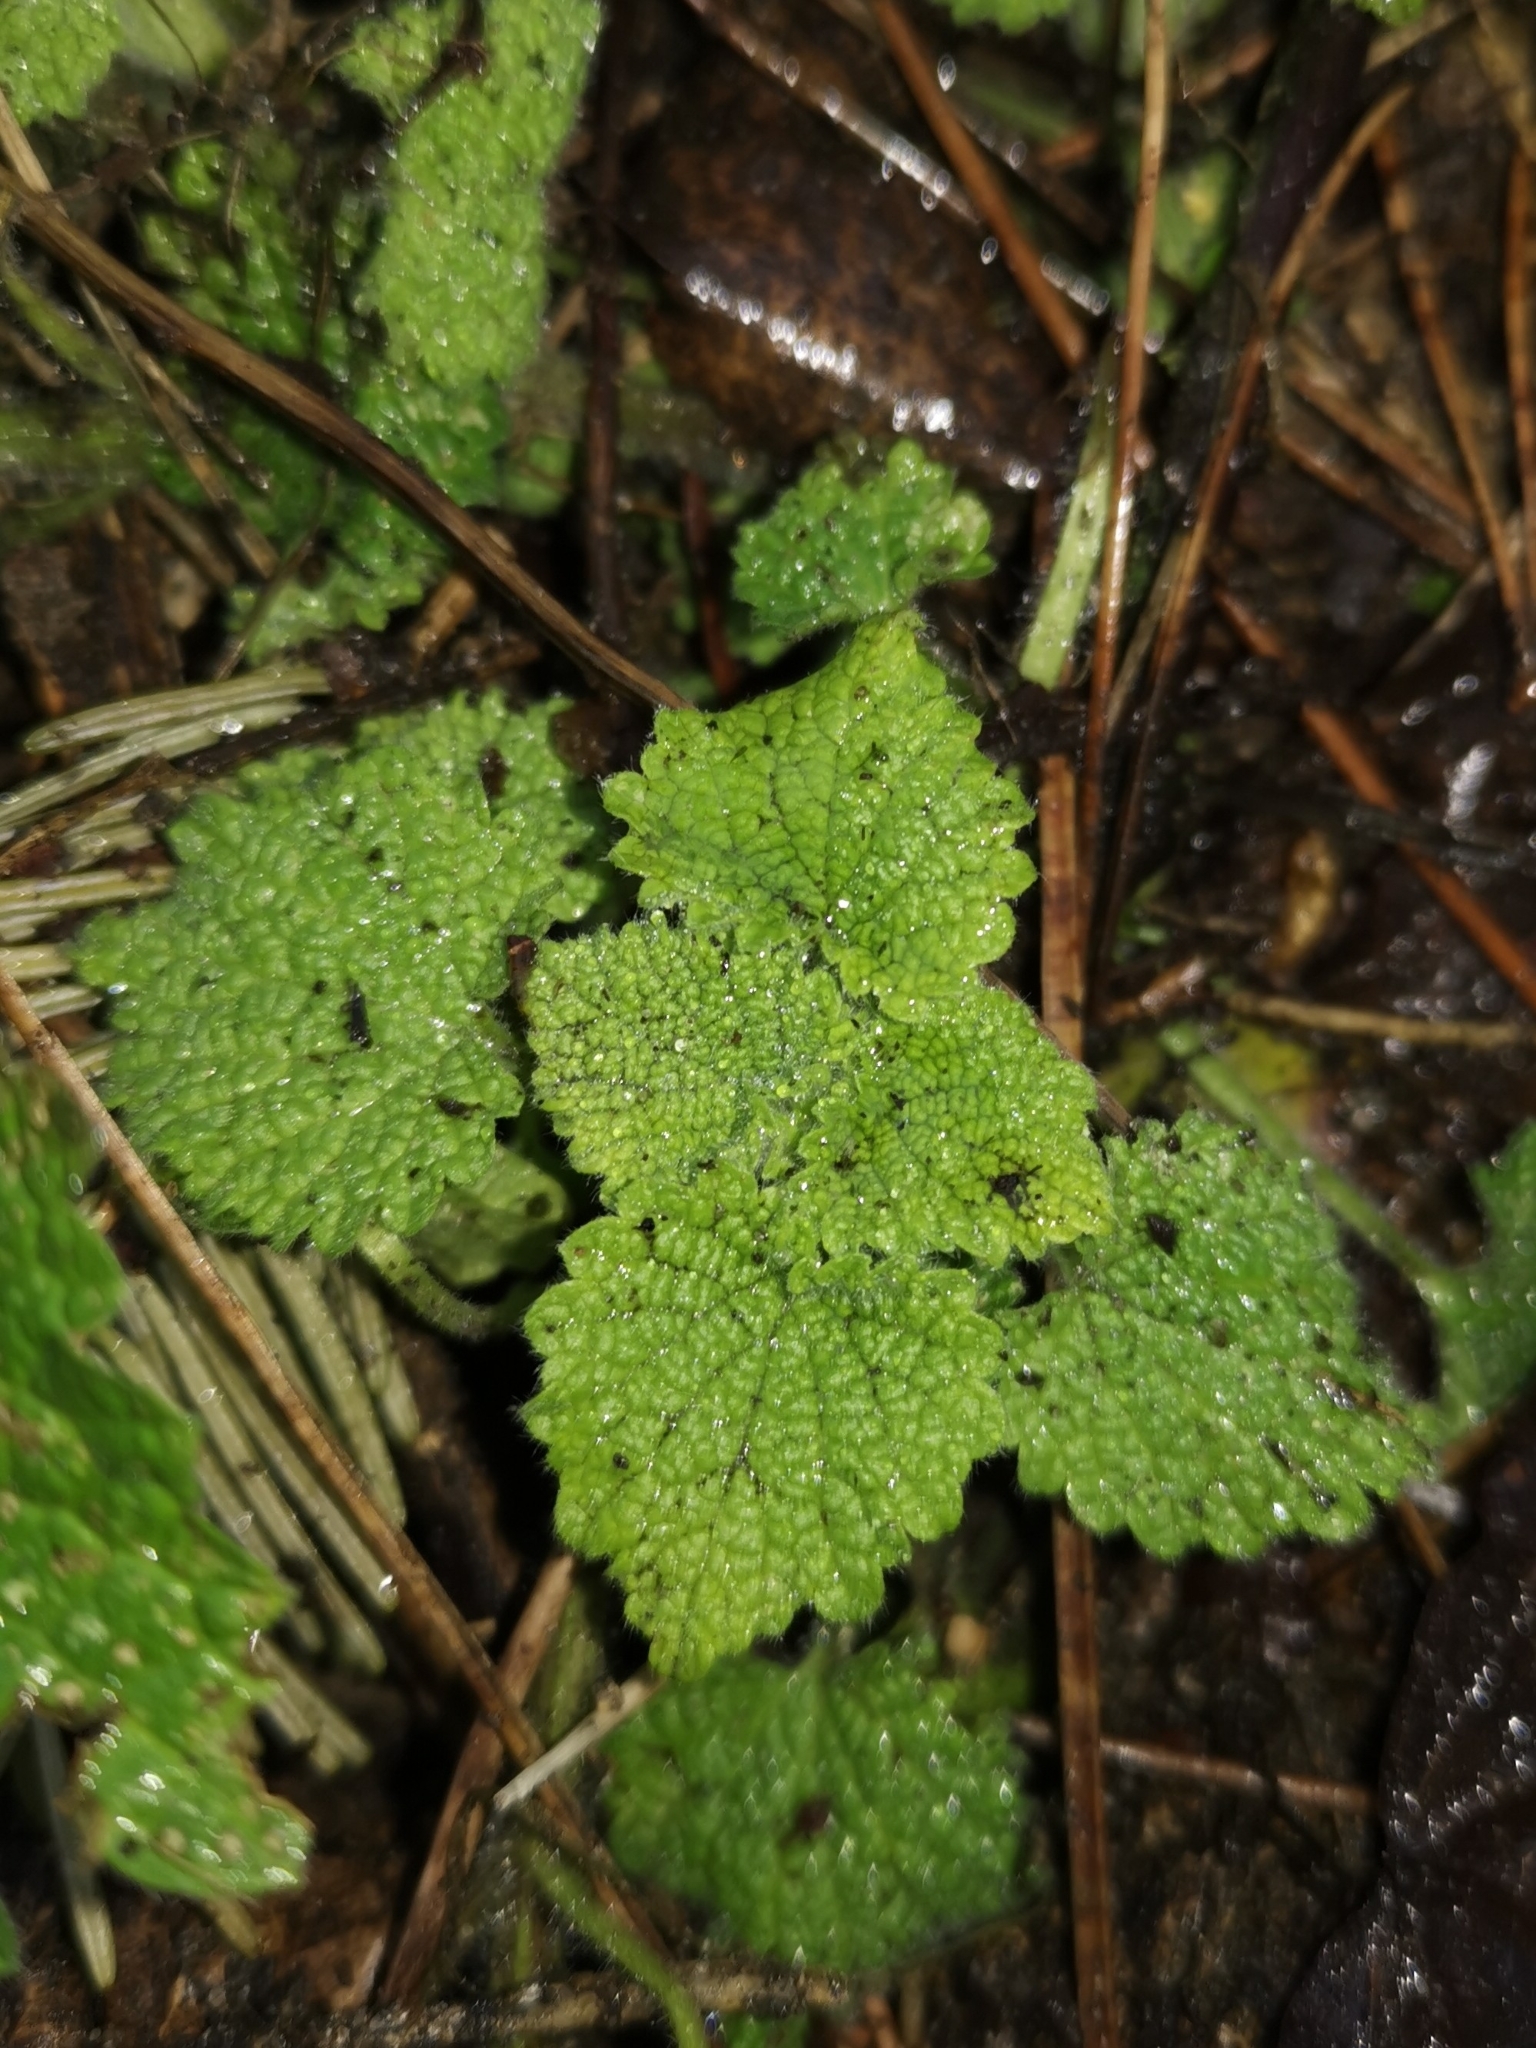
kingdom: Plantae
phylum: Tracheophyta
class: Magnoliopsida
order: Lamiales
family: Lamiaceae
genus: Ballota
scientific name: Ballota nigra
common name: Black horehound
